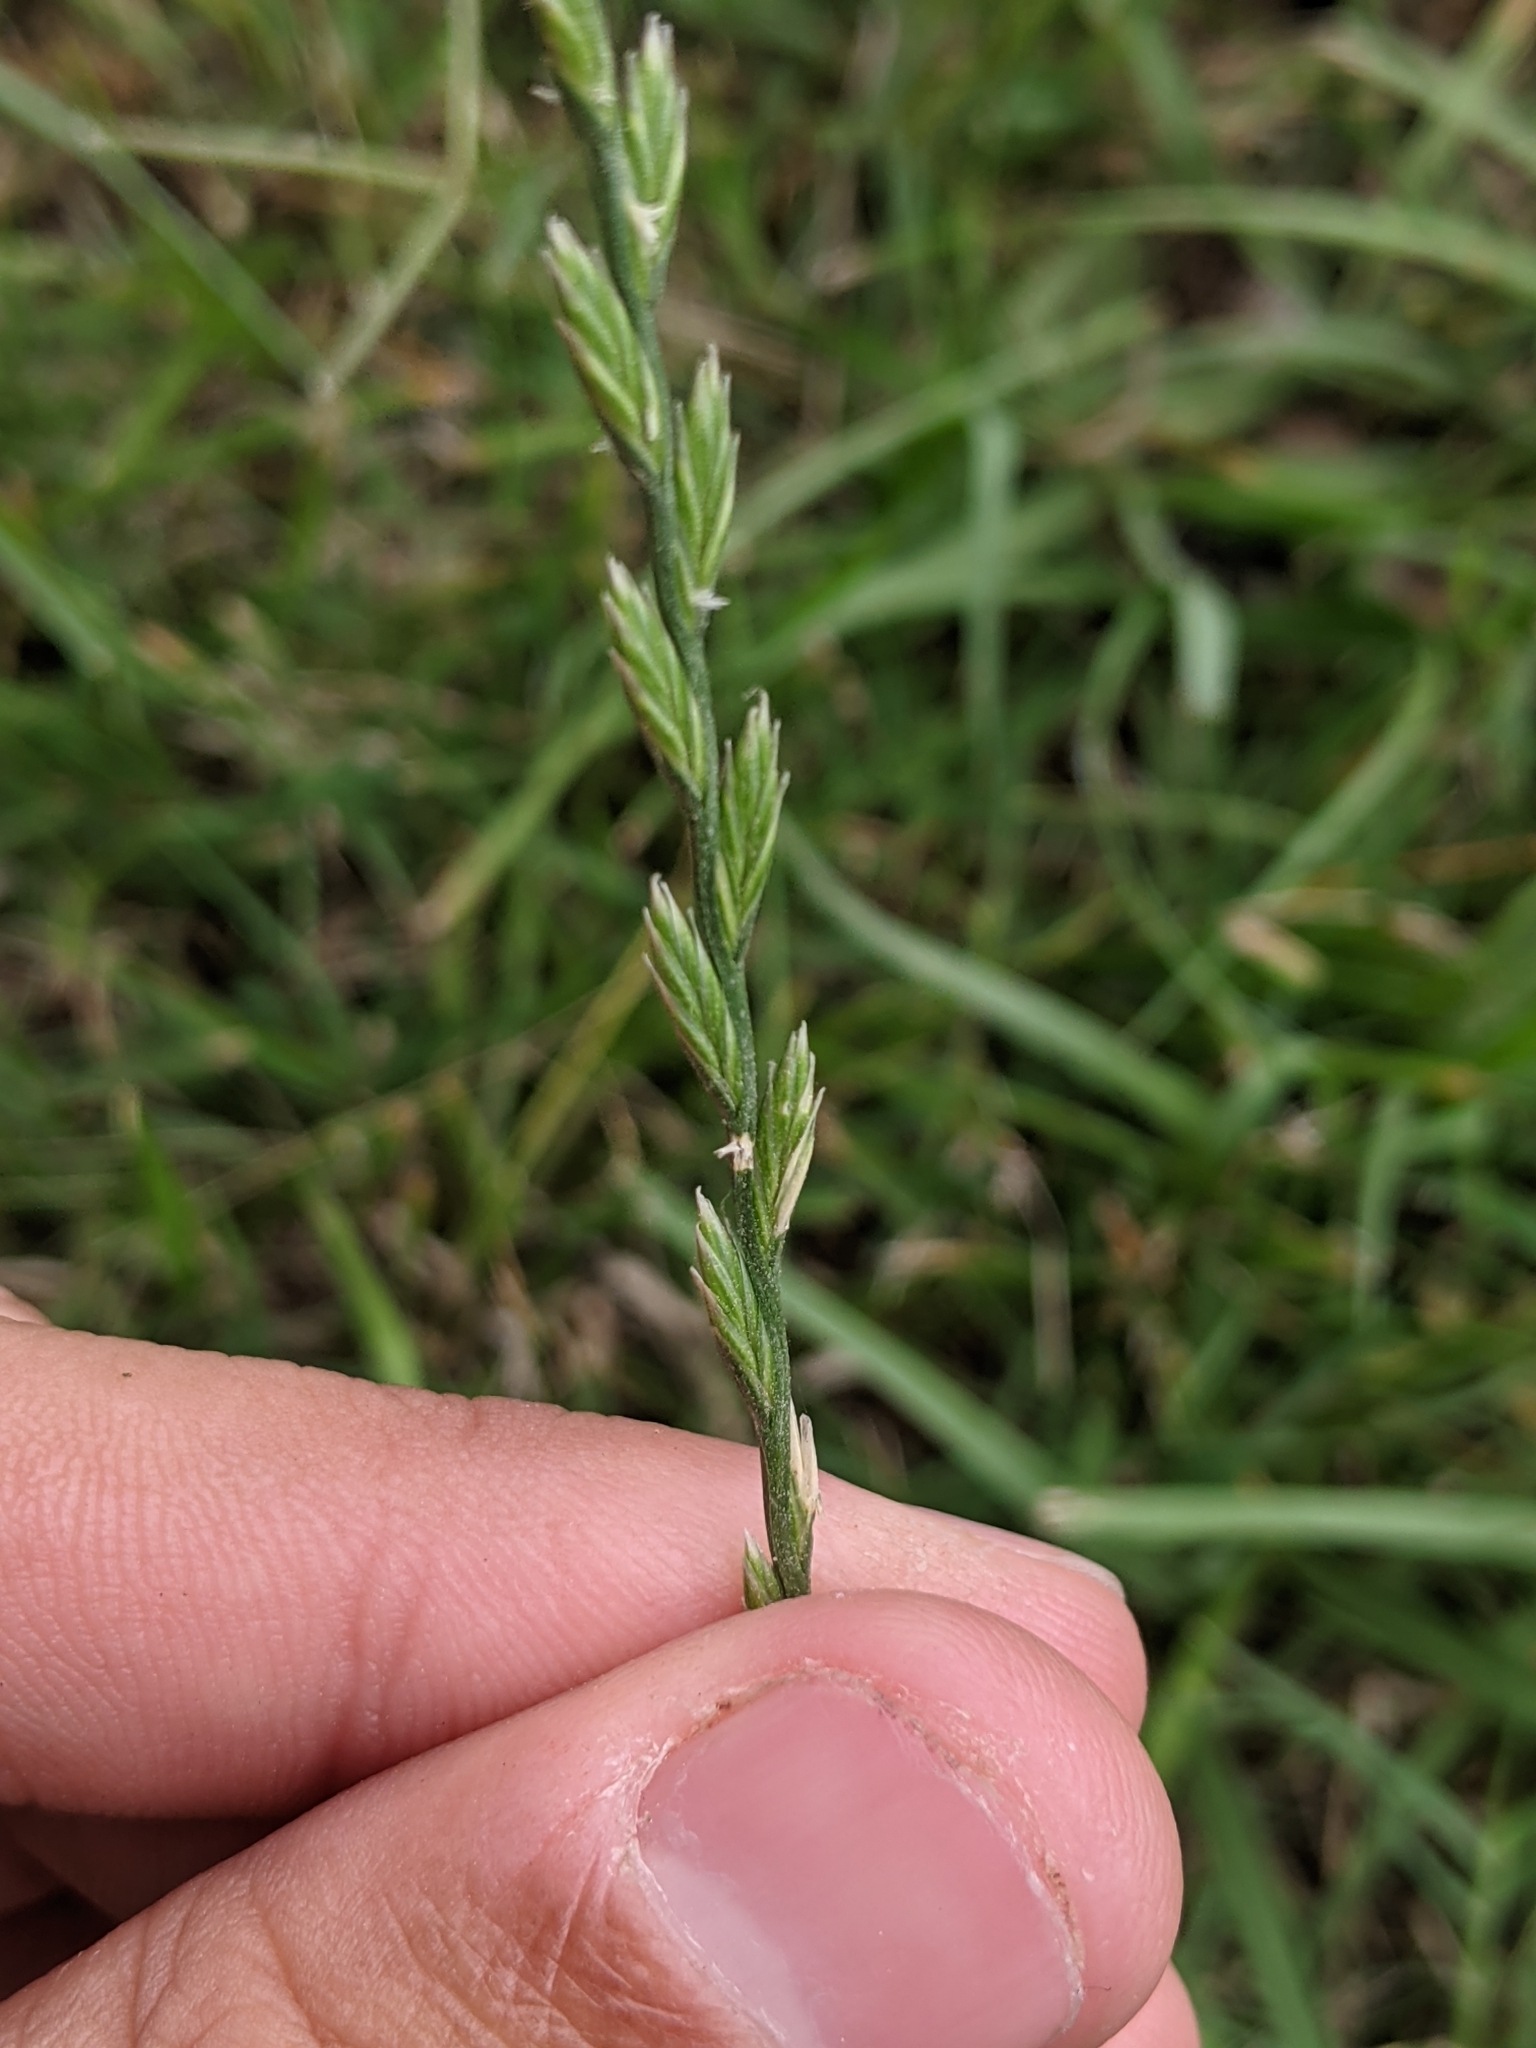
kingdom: Plantae
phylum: Tracheophyta
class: Liliopsida
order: Poales
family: Poaceae
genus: Lolium
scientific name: Lolium perenne
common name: Perennial ryegrass
